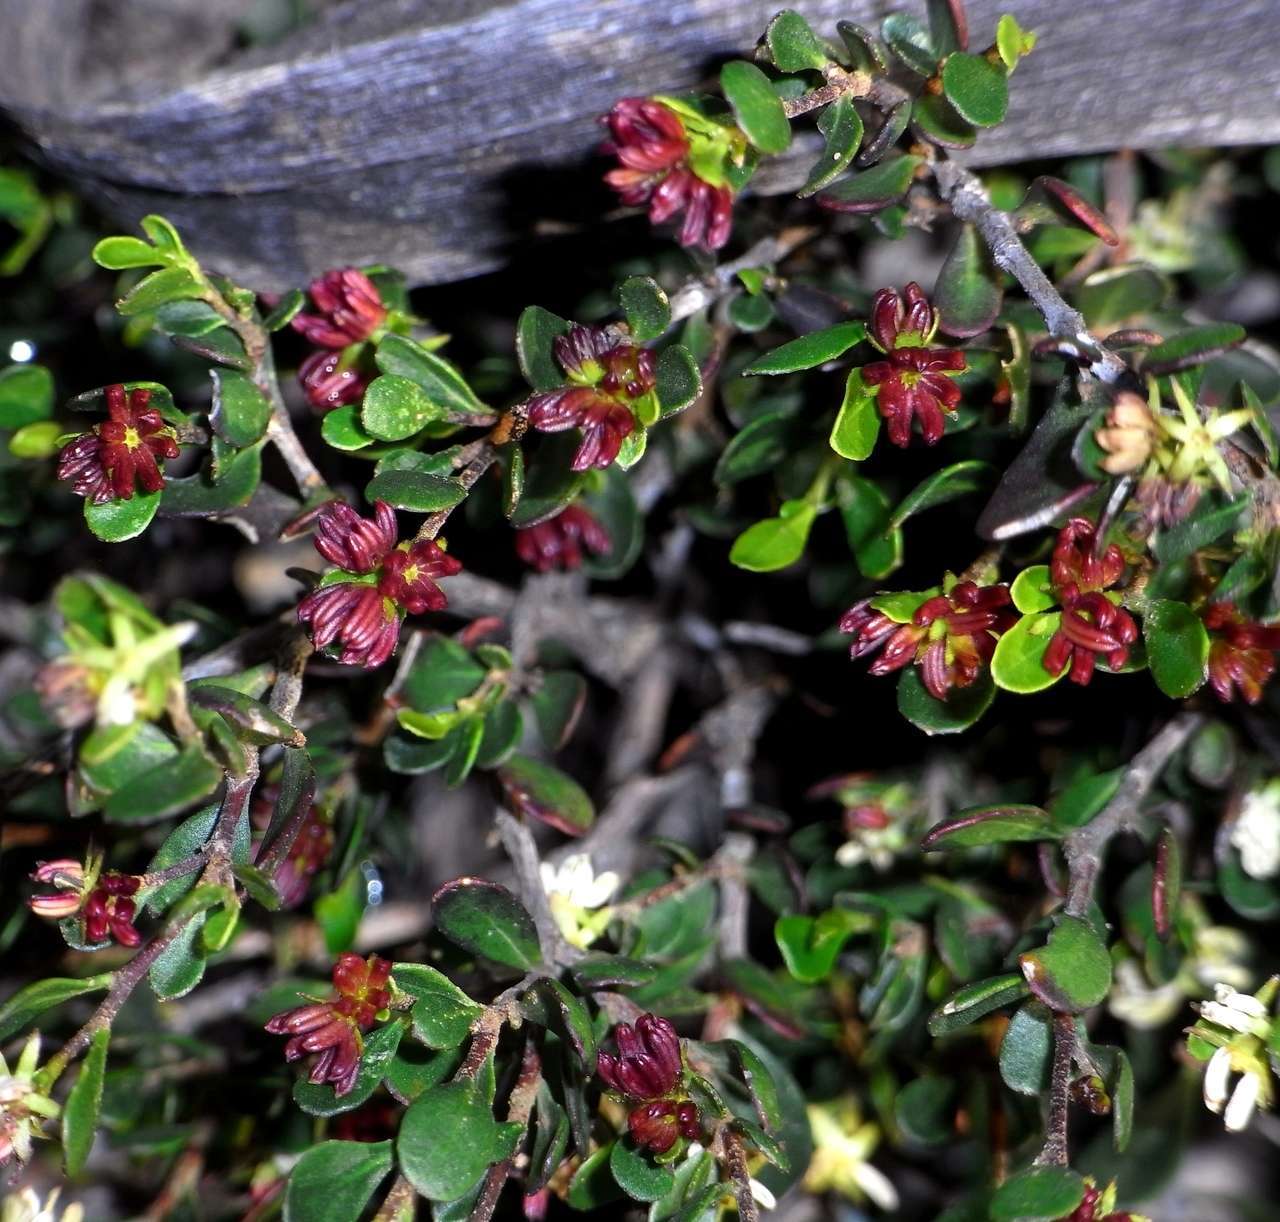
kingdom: Plantae
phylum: Tracheophyta
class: Magnoliopsida
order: Sapindales
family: Sapindaceae
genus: Dodonaea
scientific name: Dodonaea bursariifolia
